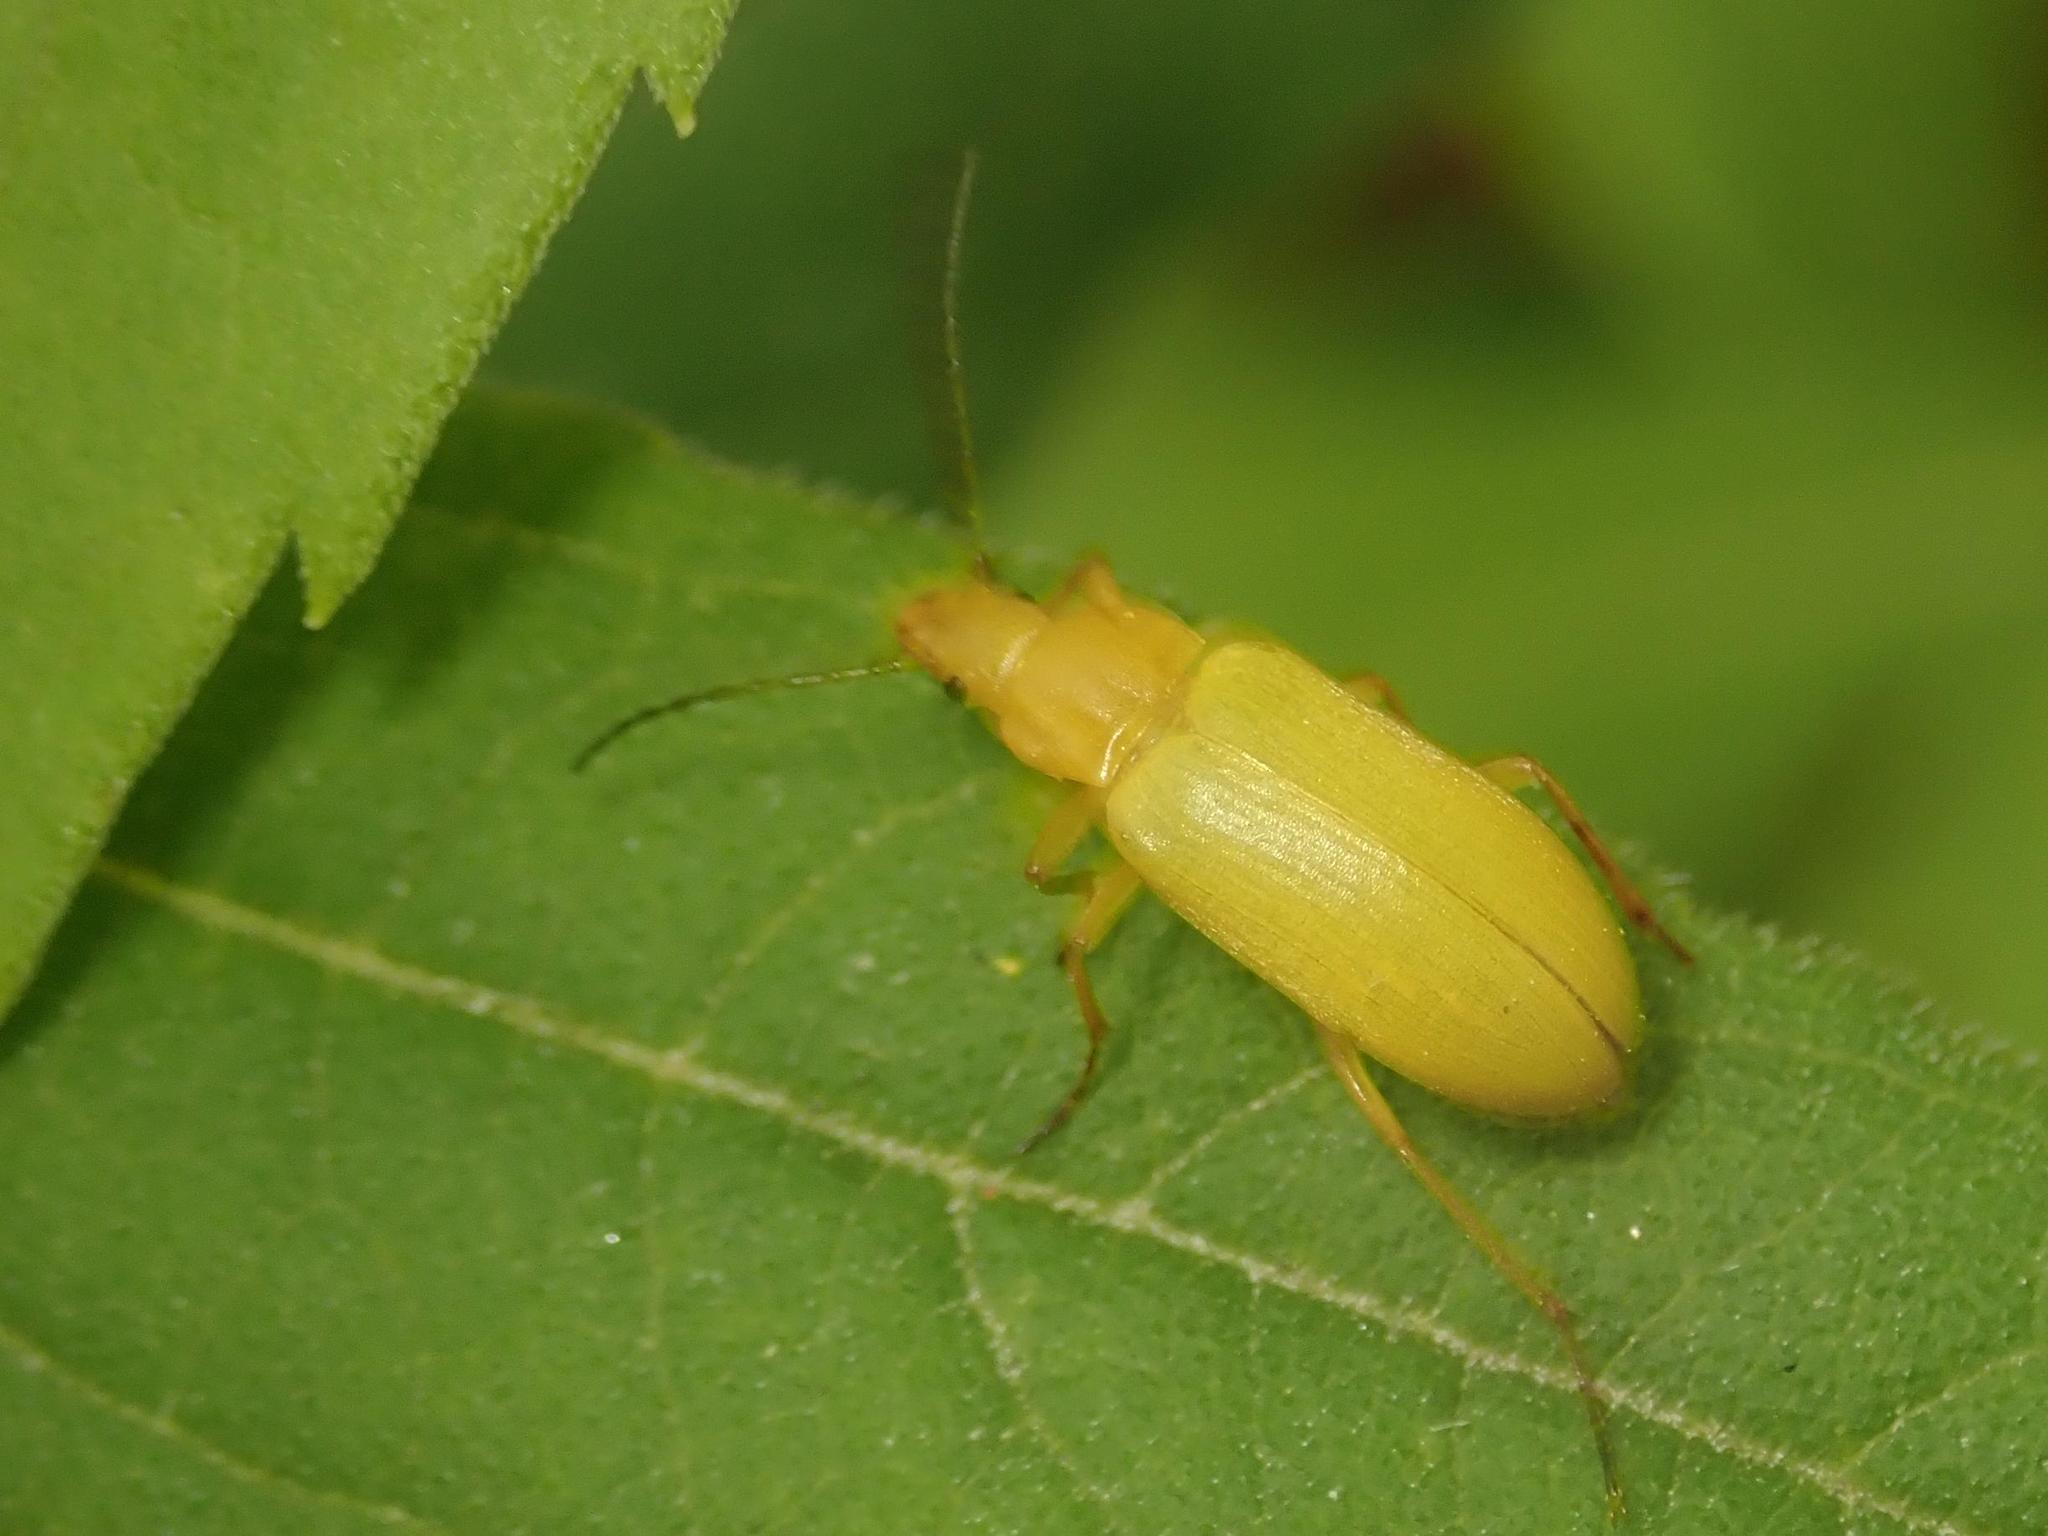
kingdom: Animalia
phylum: Arthropoda
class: Insecta
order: Coleoptera
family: Tenebrionidae
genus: Cteniopus
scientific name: Cteniopus sulphureus
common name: Sulphur beetle
